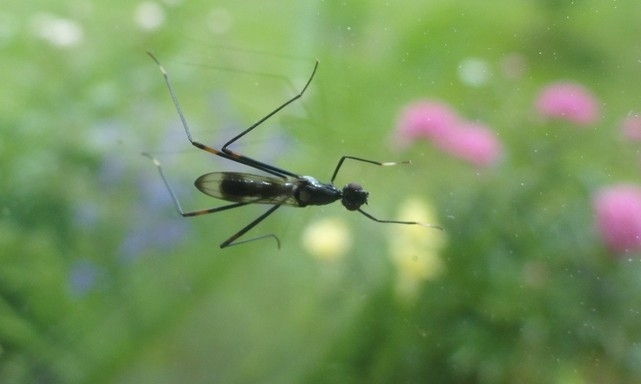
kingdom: Animalia
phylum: Arthropoda
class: Insecta
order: Diptera
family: Micropezidae
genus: Rainieria
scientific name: Rainieria calceata
